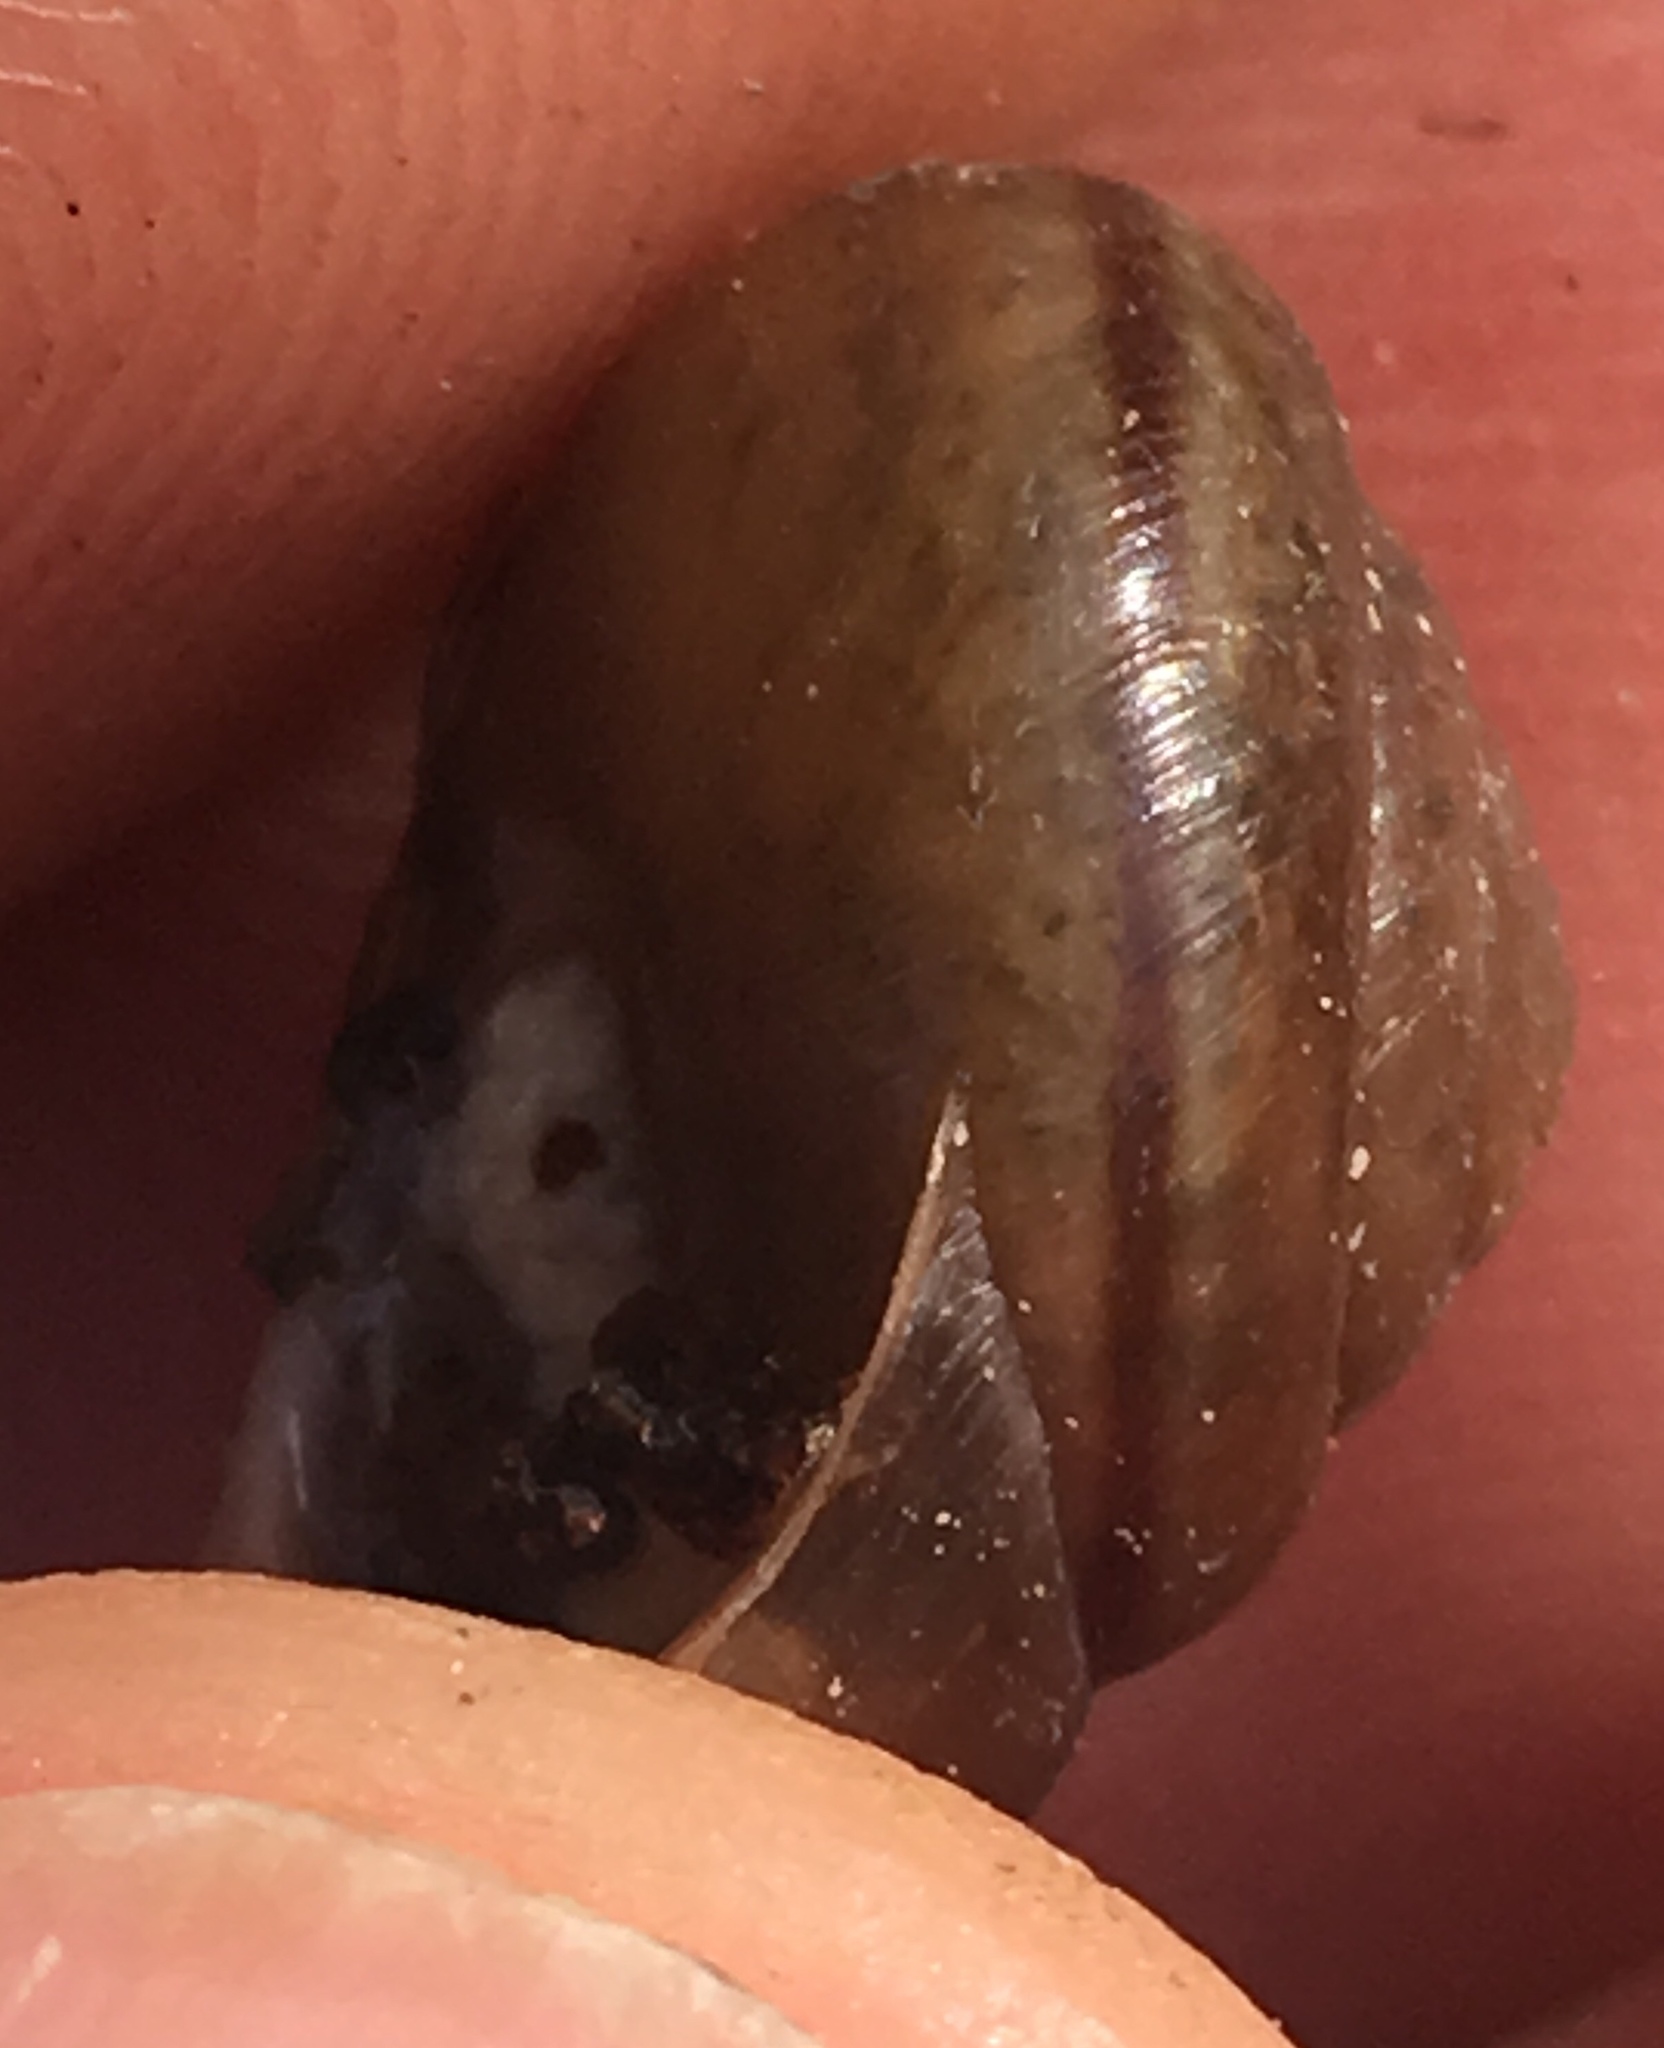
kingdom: Animalia
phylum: Mollusca
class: Gastropoda
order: Stylommatophora
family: Xanthonychidae
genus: Micrarionta
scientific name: Micrarionta feralis
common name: Fraternal snail
